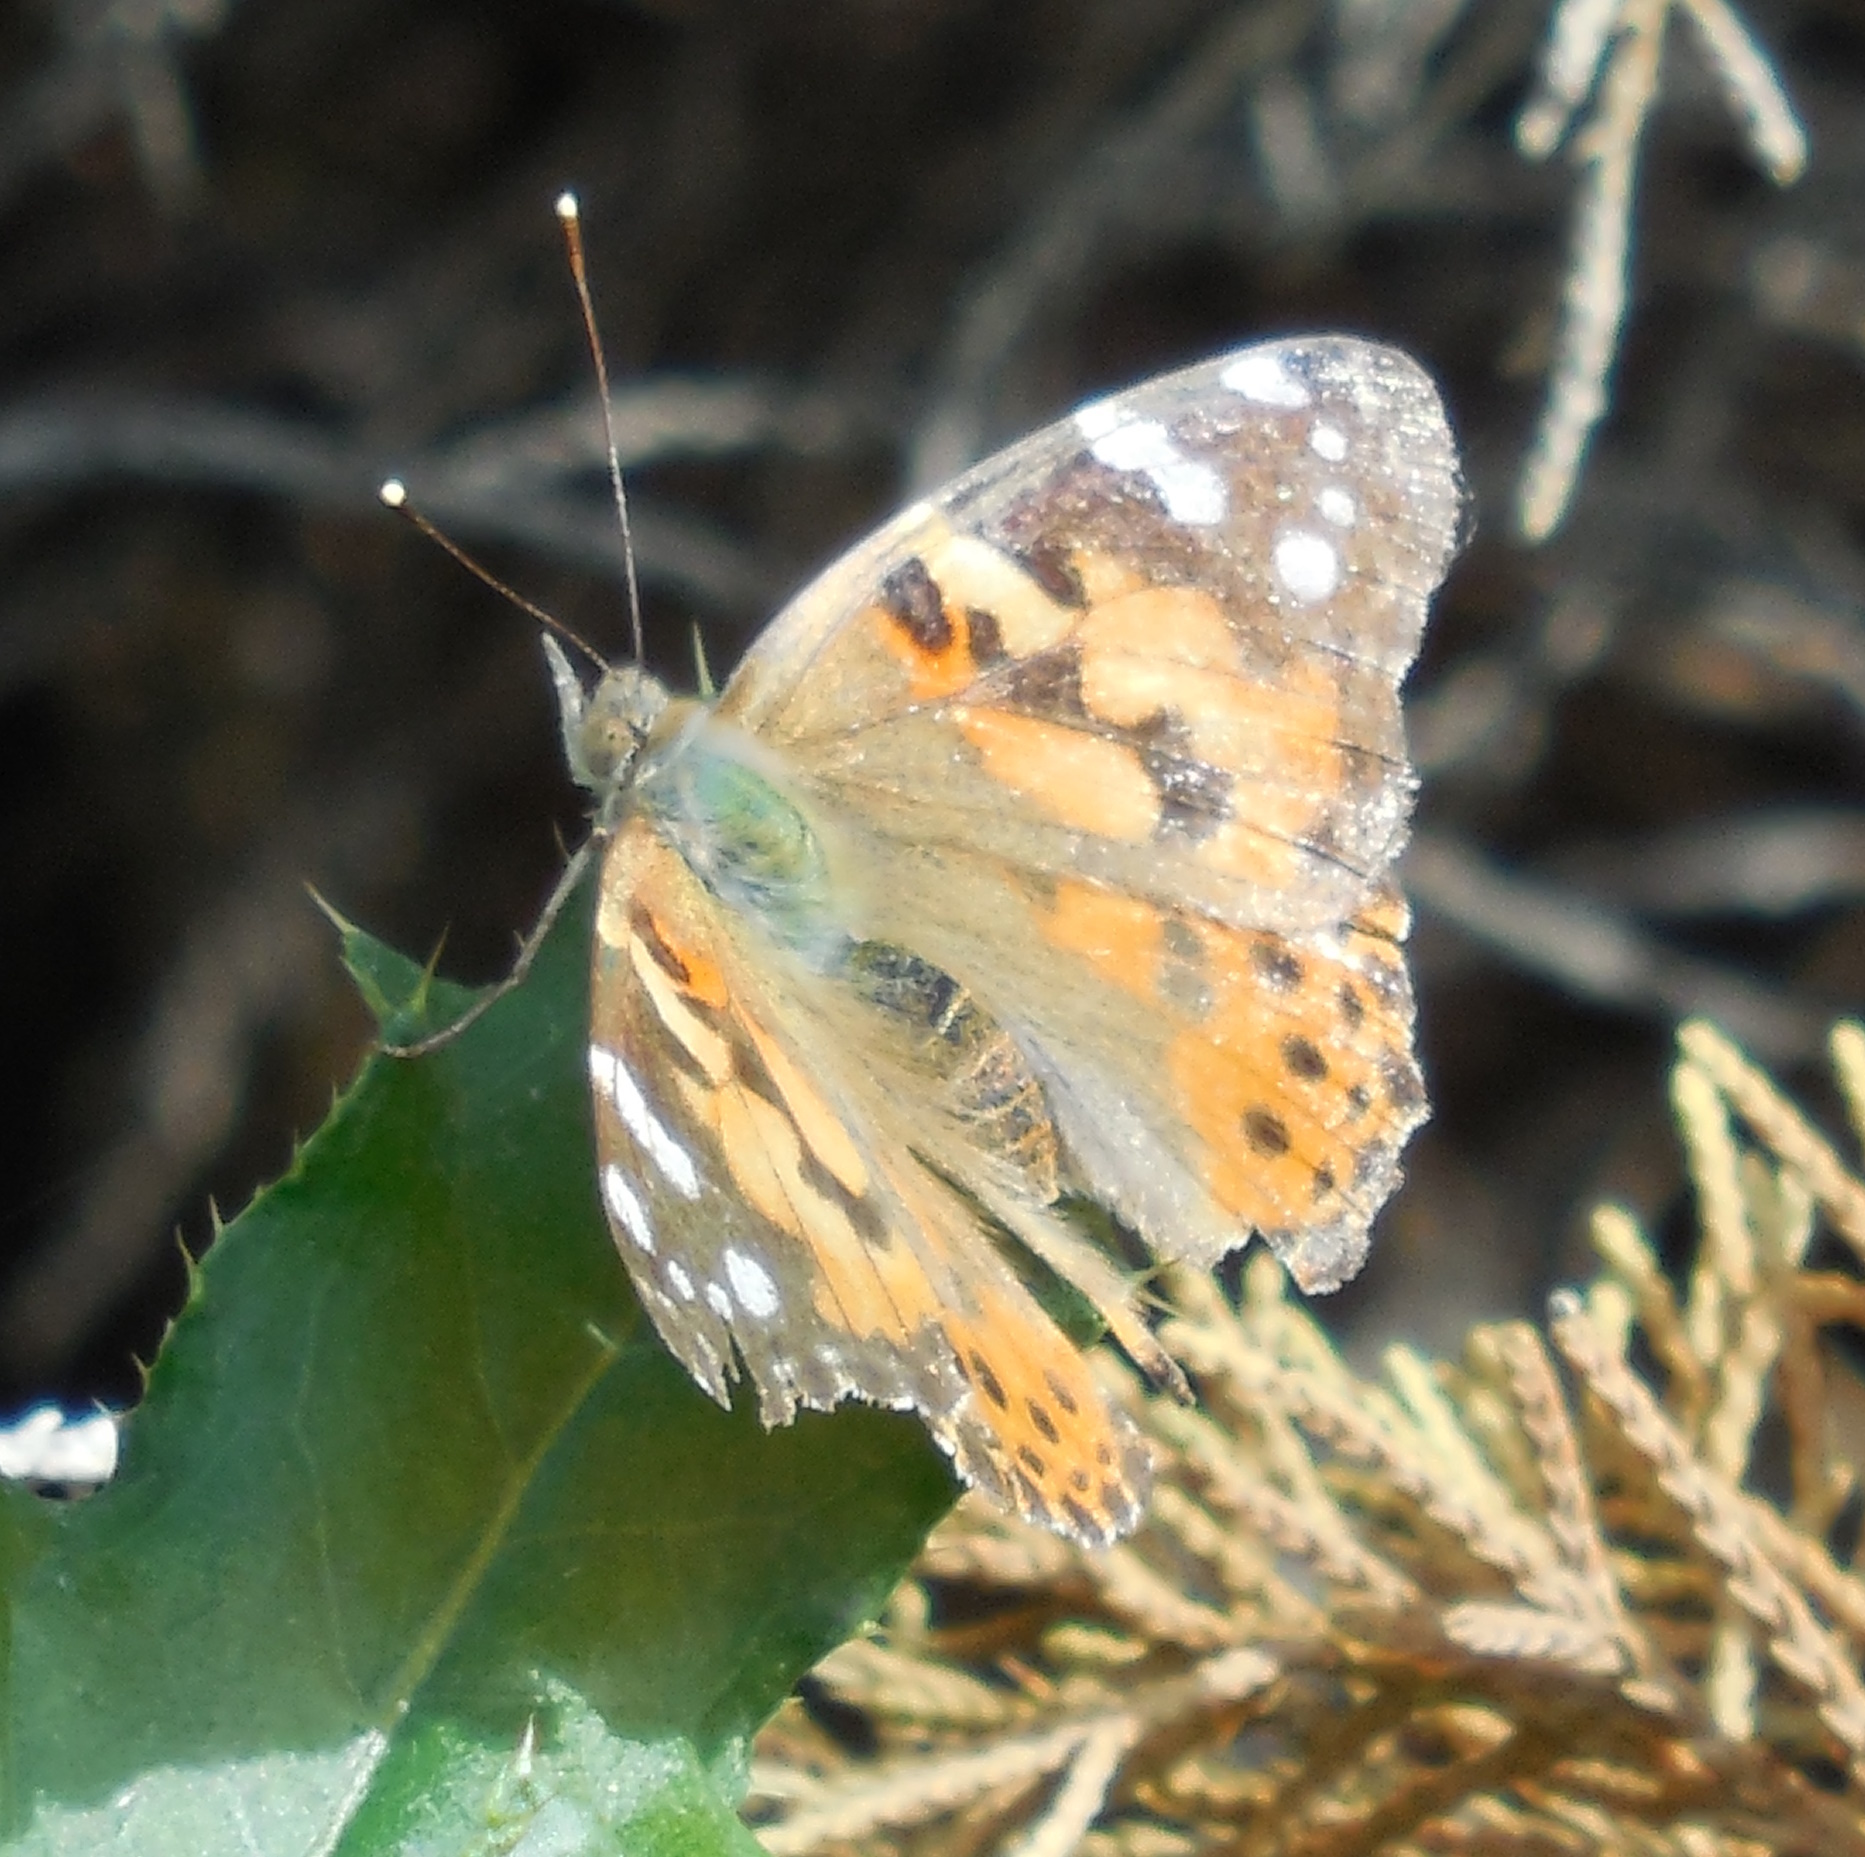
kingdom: Animalia
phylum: Arthropoda
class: Insecta
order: Lepidoptera
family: Nymphalidae
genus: Vanessa
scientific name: Vanessa cardui
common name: Painted lady
